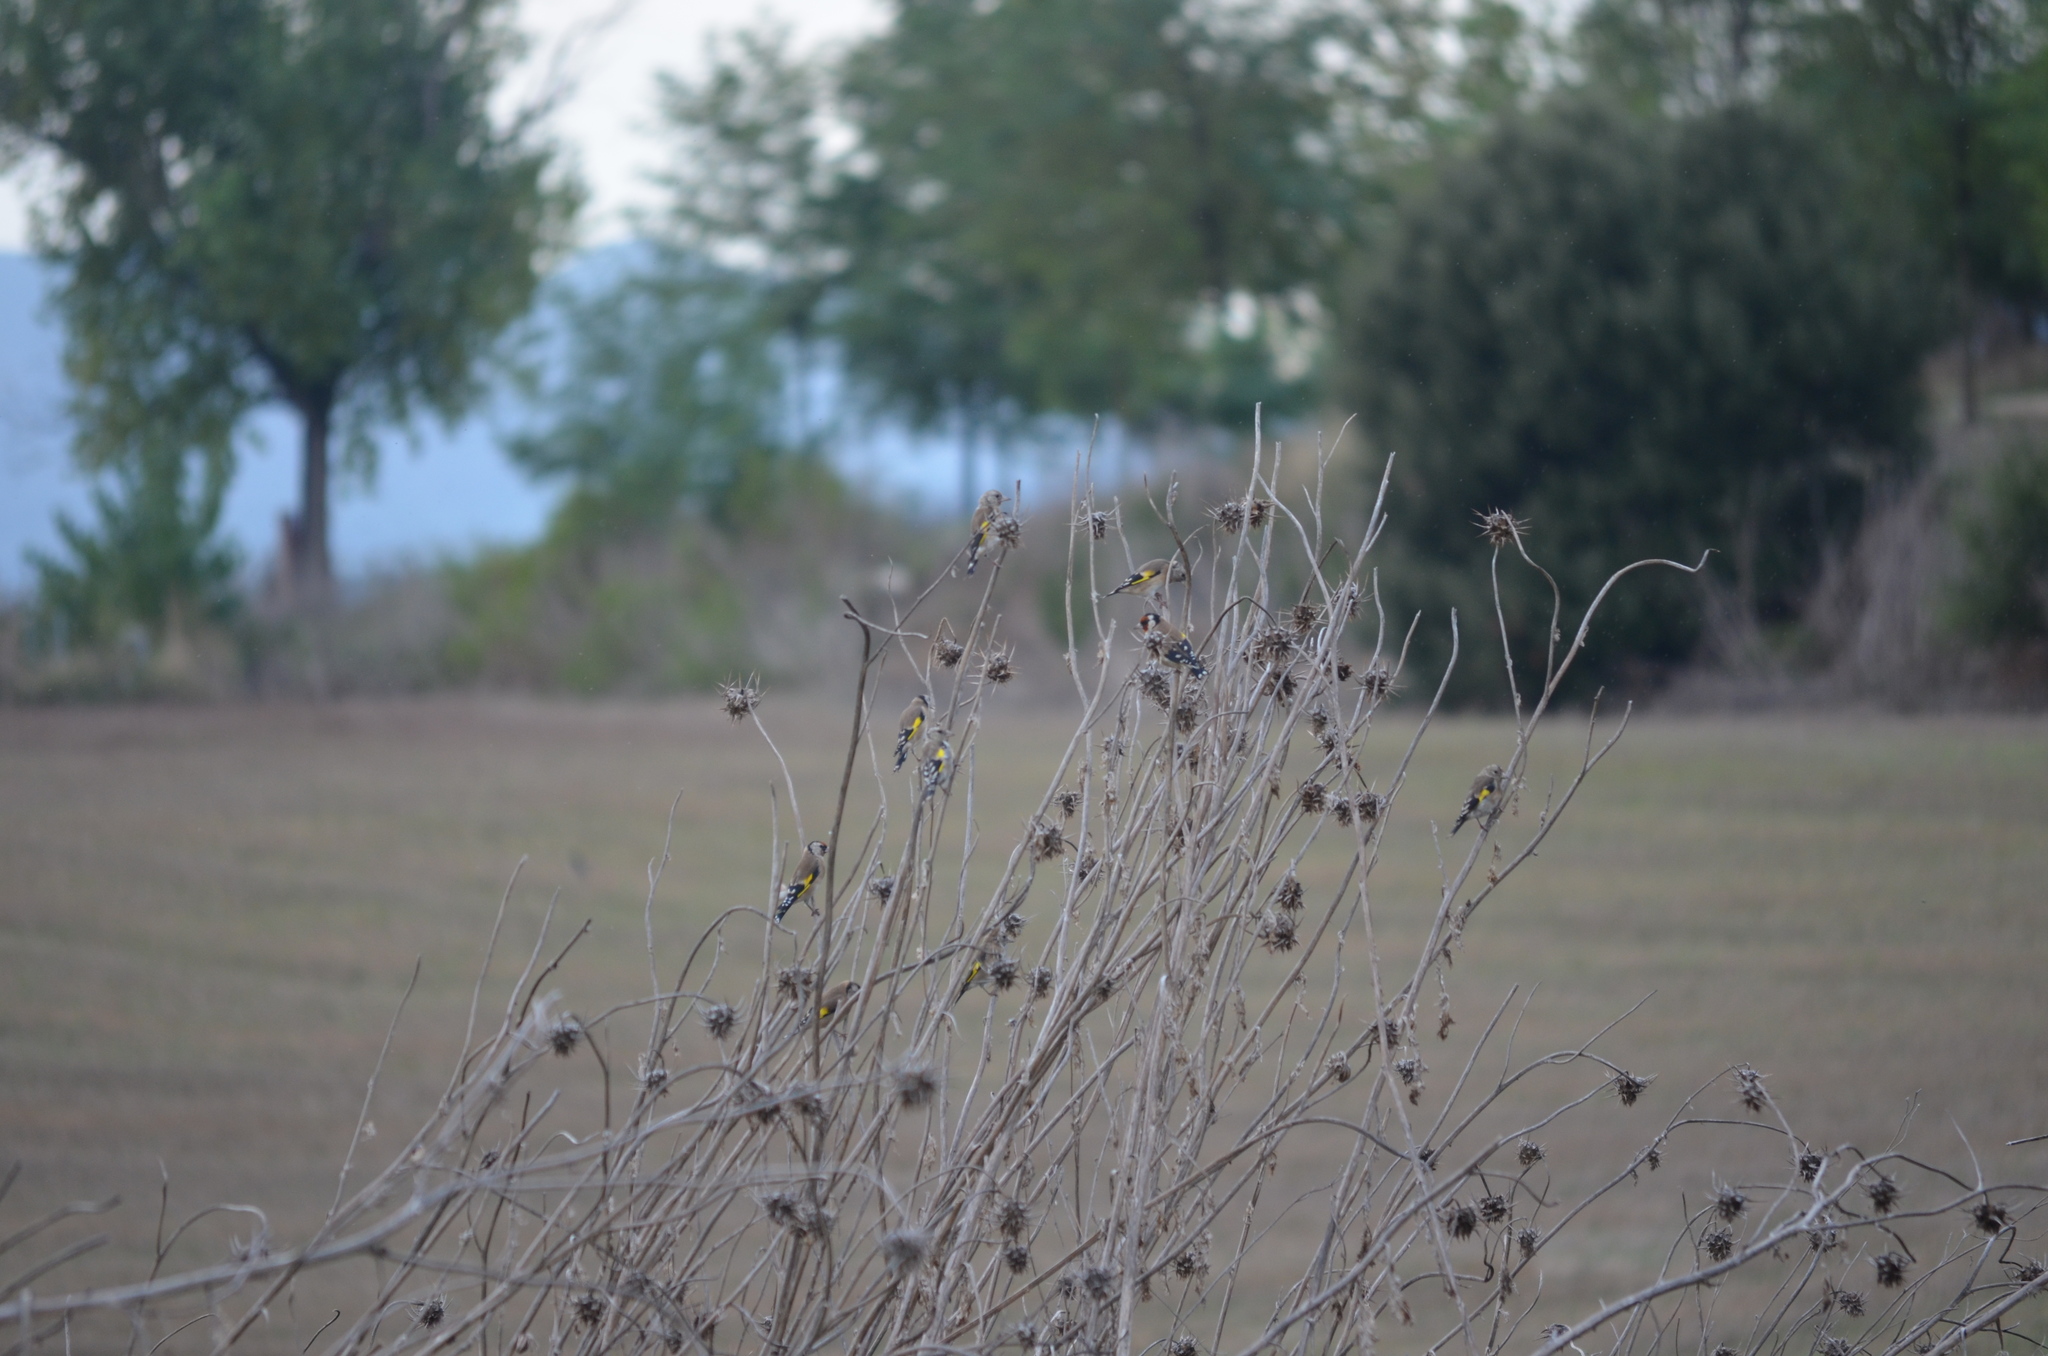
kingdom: Animalia
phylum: Chordata
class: Aves
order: Passeriformes
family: Fringillidae
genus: Carduelis
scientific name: Carduelis carduelis
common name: European goldfinch
